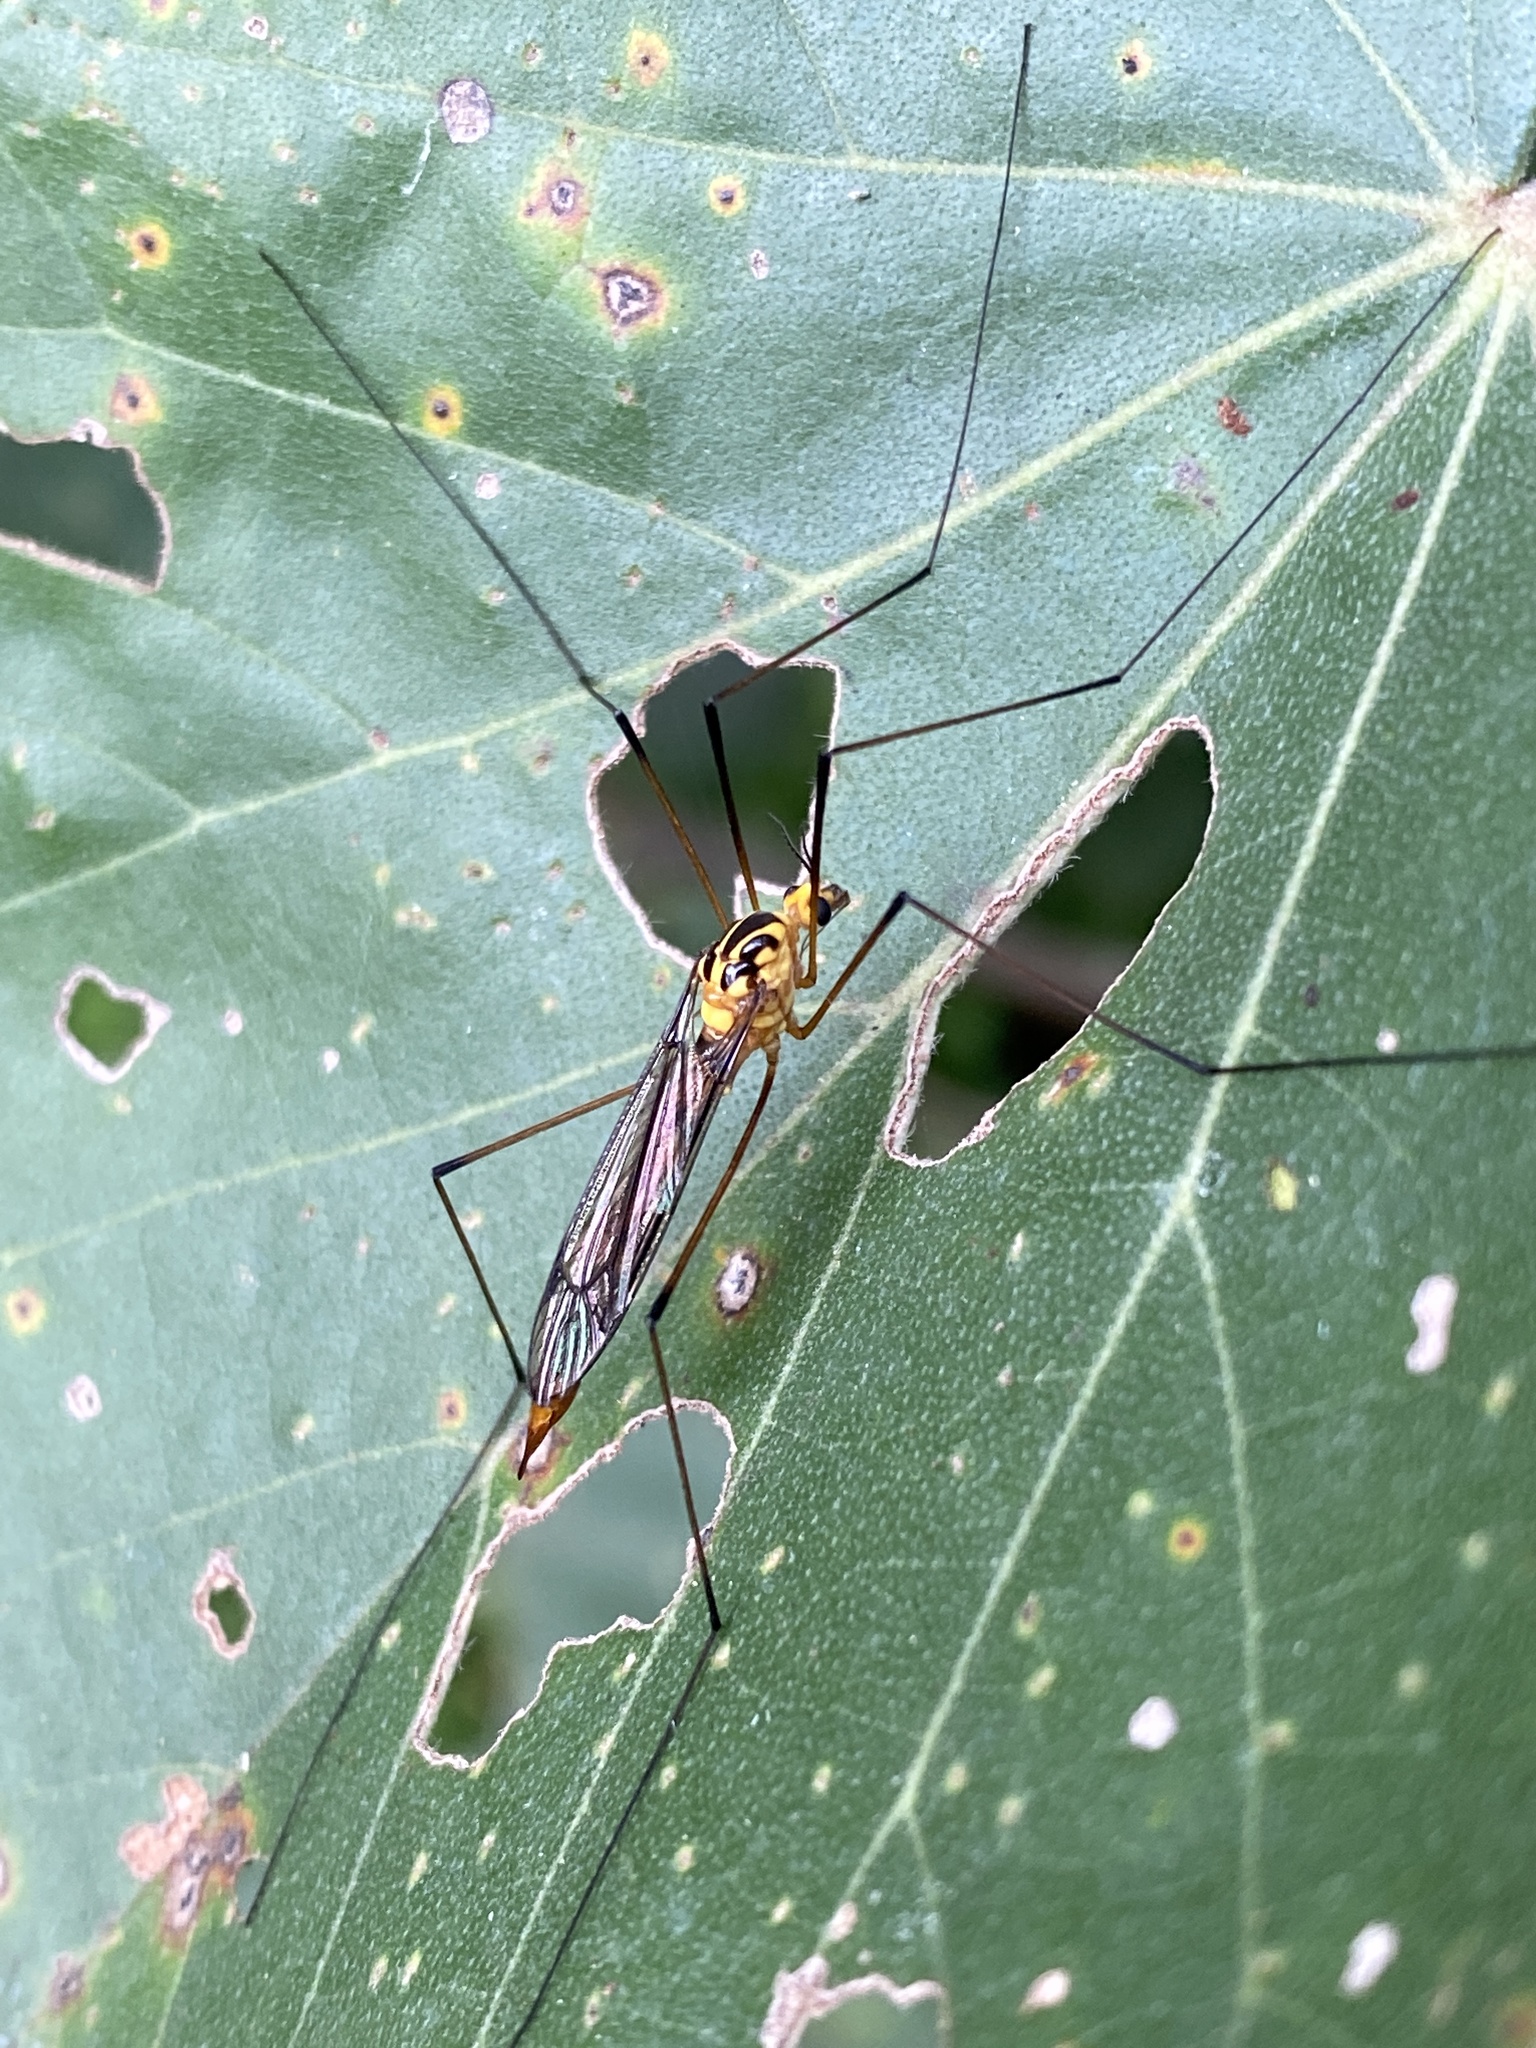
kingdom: Animalia
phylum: Arthropoda
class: Insecta
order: Diptera
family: Tipulidae
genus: Nephrotoma
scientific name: Nephrotoma australasiae
